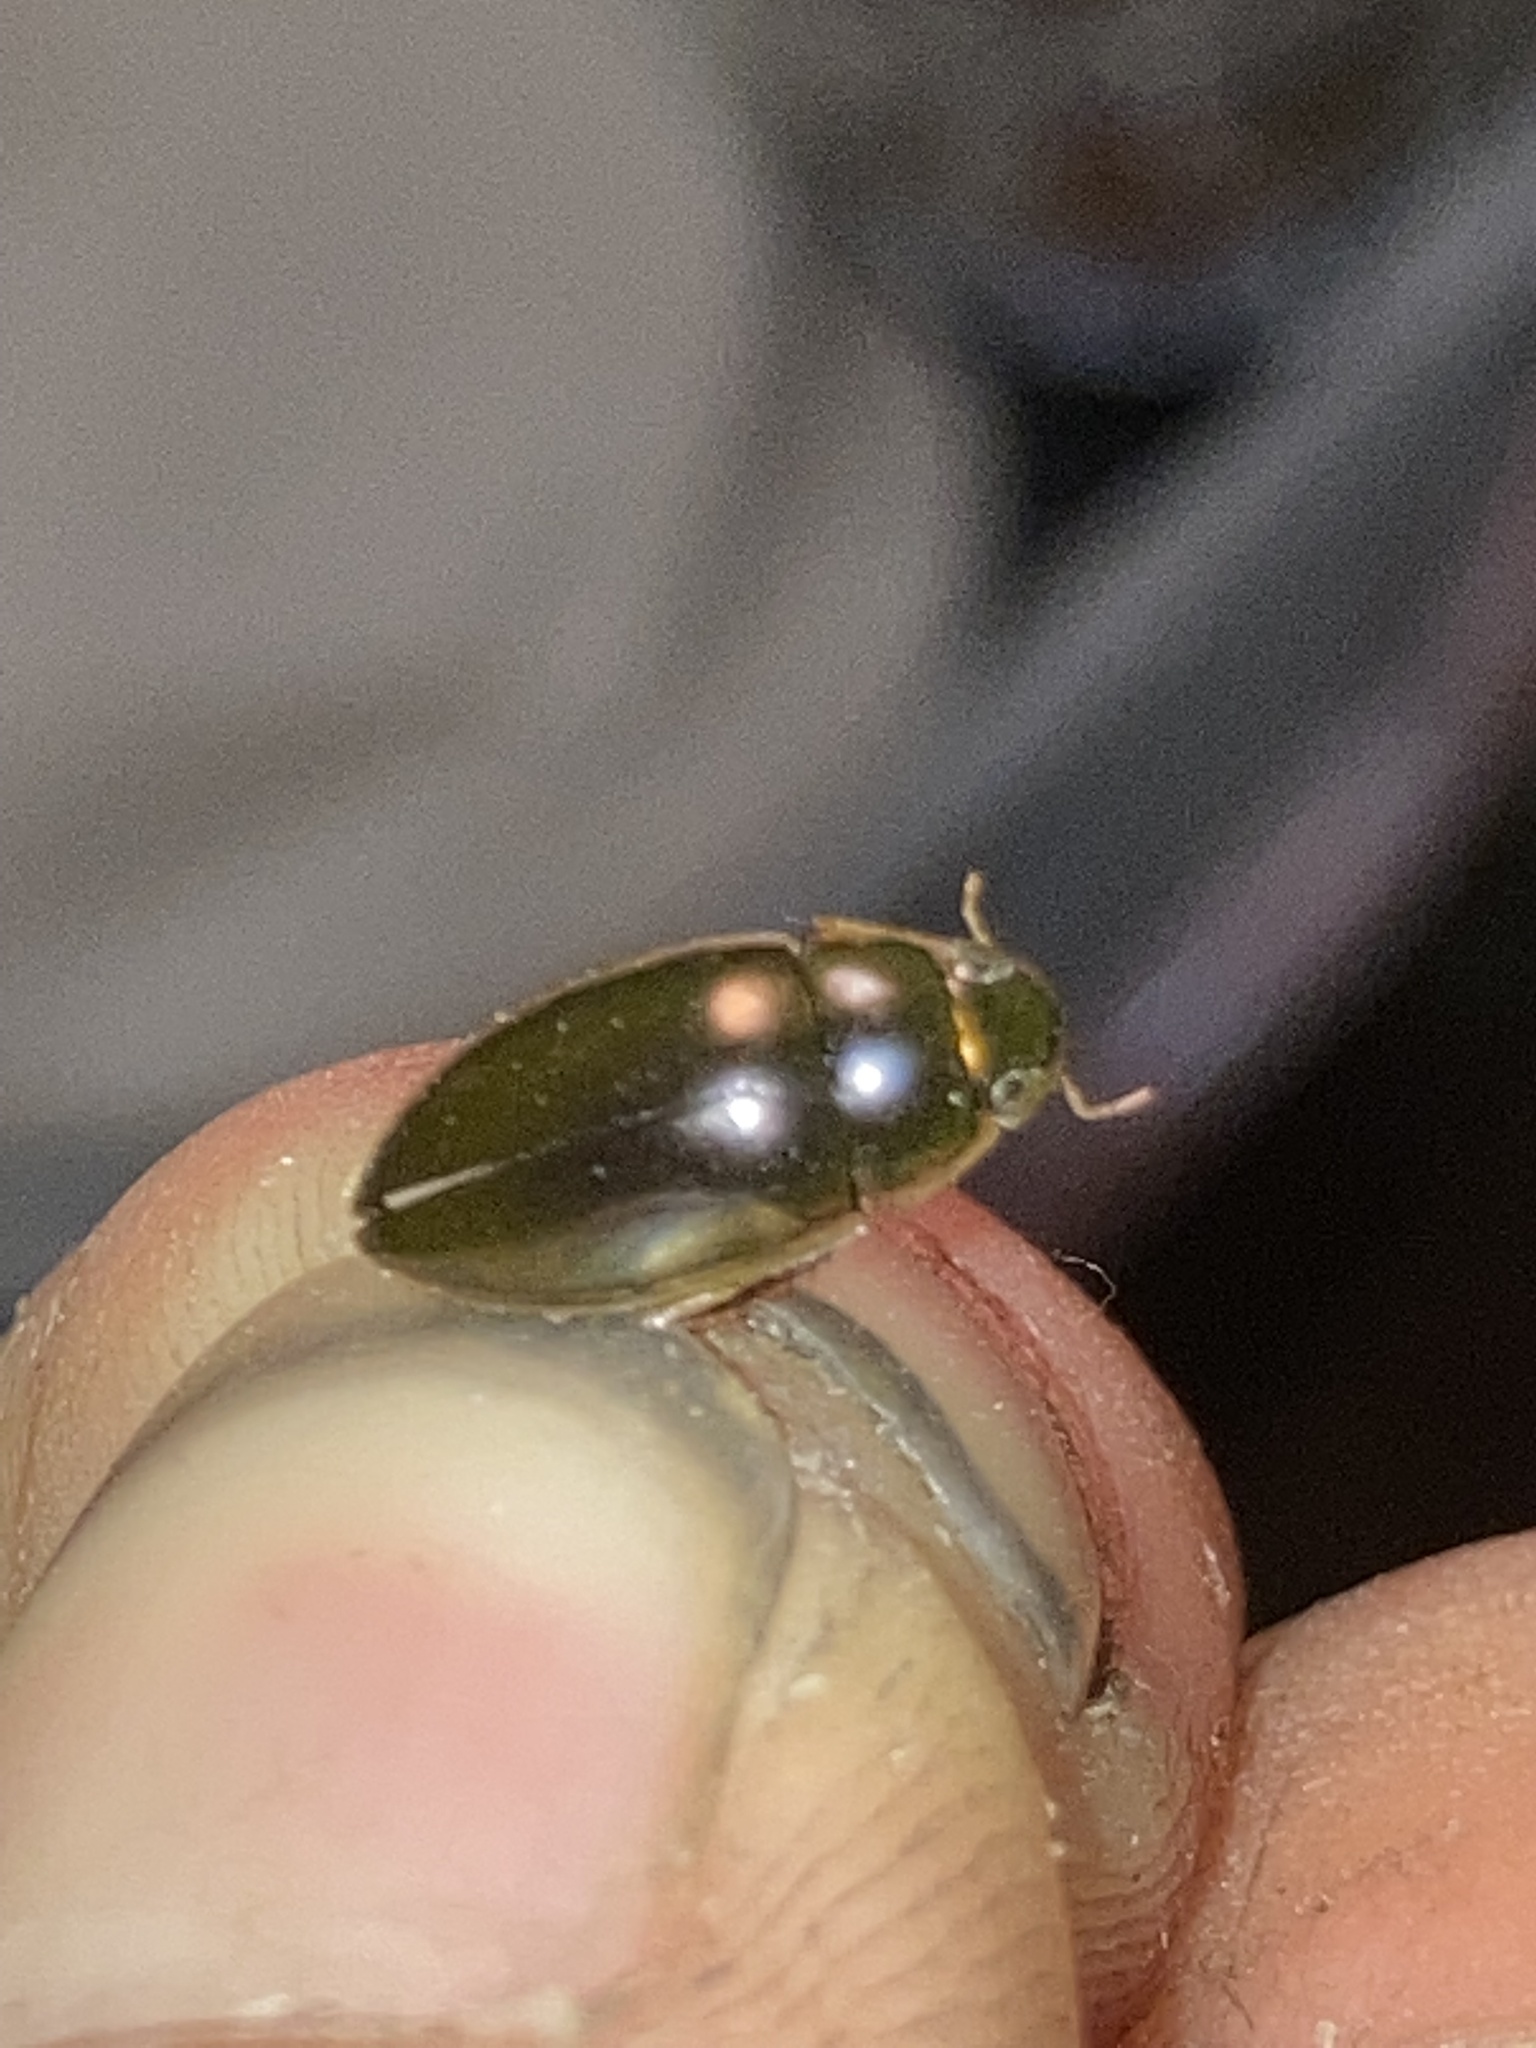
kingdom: Animalia
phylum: Arthropoda
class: Insecta
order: Coleoptera
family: Hydrophilidae
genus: Tropisternus
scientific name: Tropisternus lateralis
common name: Lateral-banded water scavenger beetle
